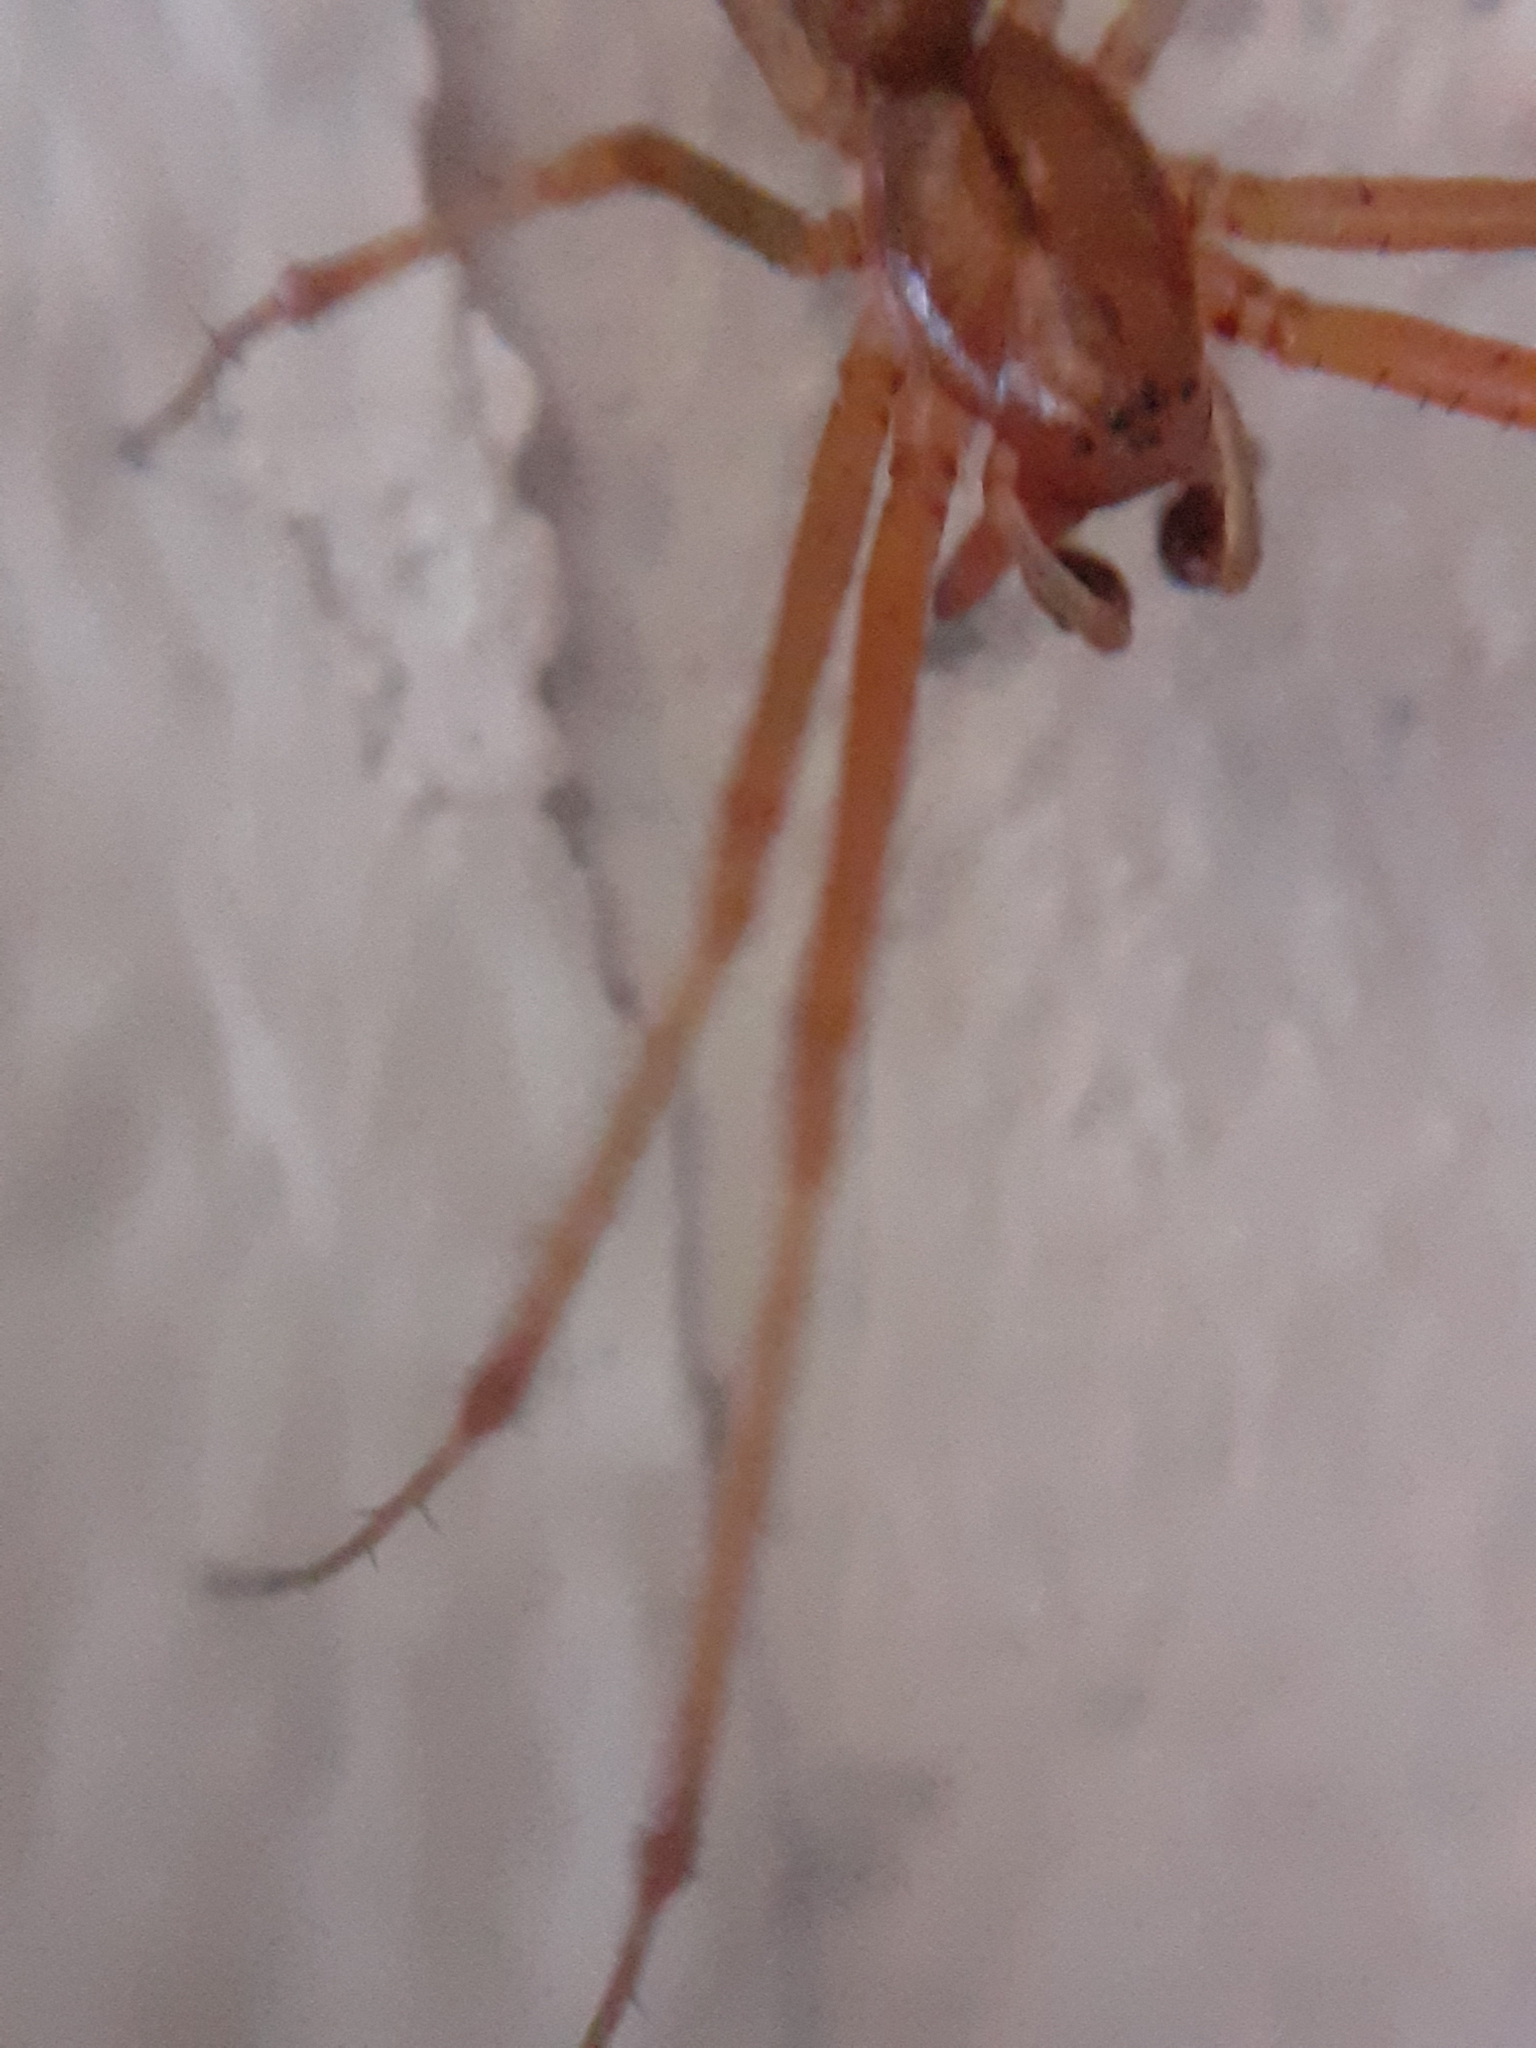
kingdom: Animalia
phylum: Arthropoda
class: Arachnida
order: Araneae
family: Linyphiidae
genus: Linyphia
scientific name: Linyphia triangularis
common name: Money spider
